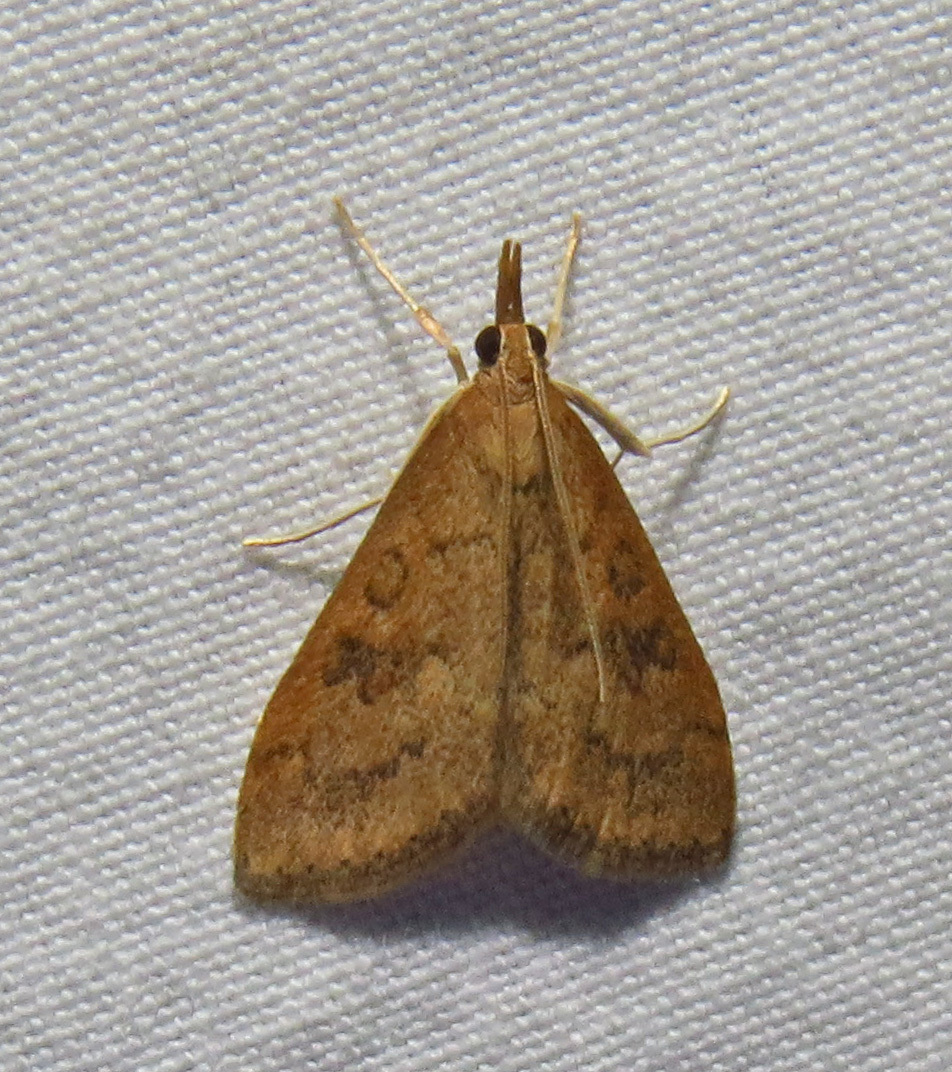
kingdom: Animalia
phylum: Arthropoda
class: Insecta
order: Lepidoptera
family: Crambidae
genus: Udea
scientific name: Udea rubigalis
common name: Celery leaftier moth
